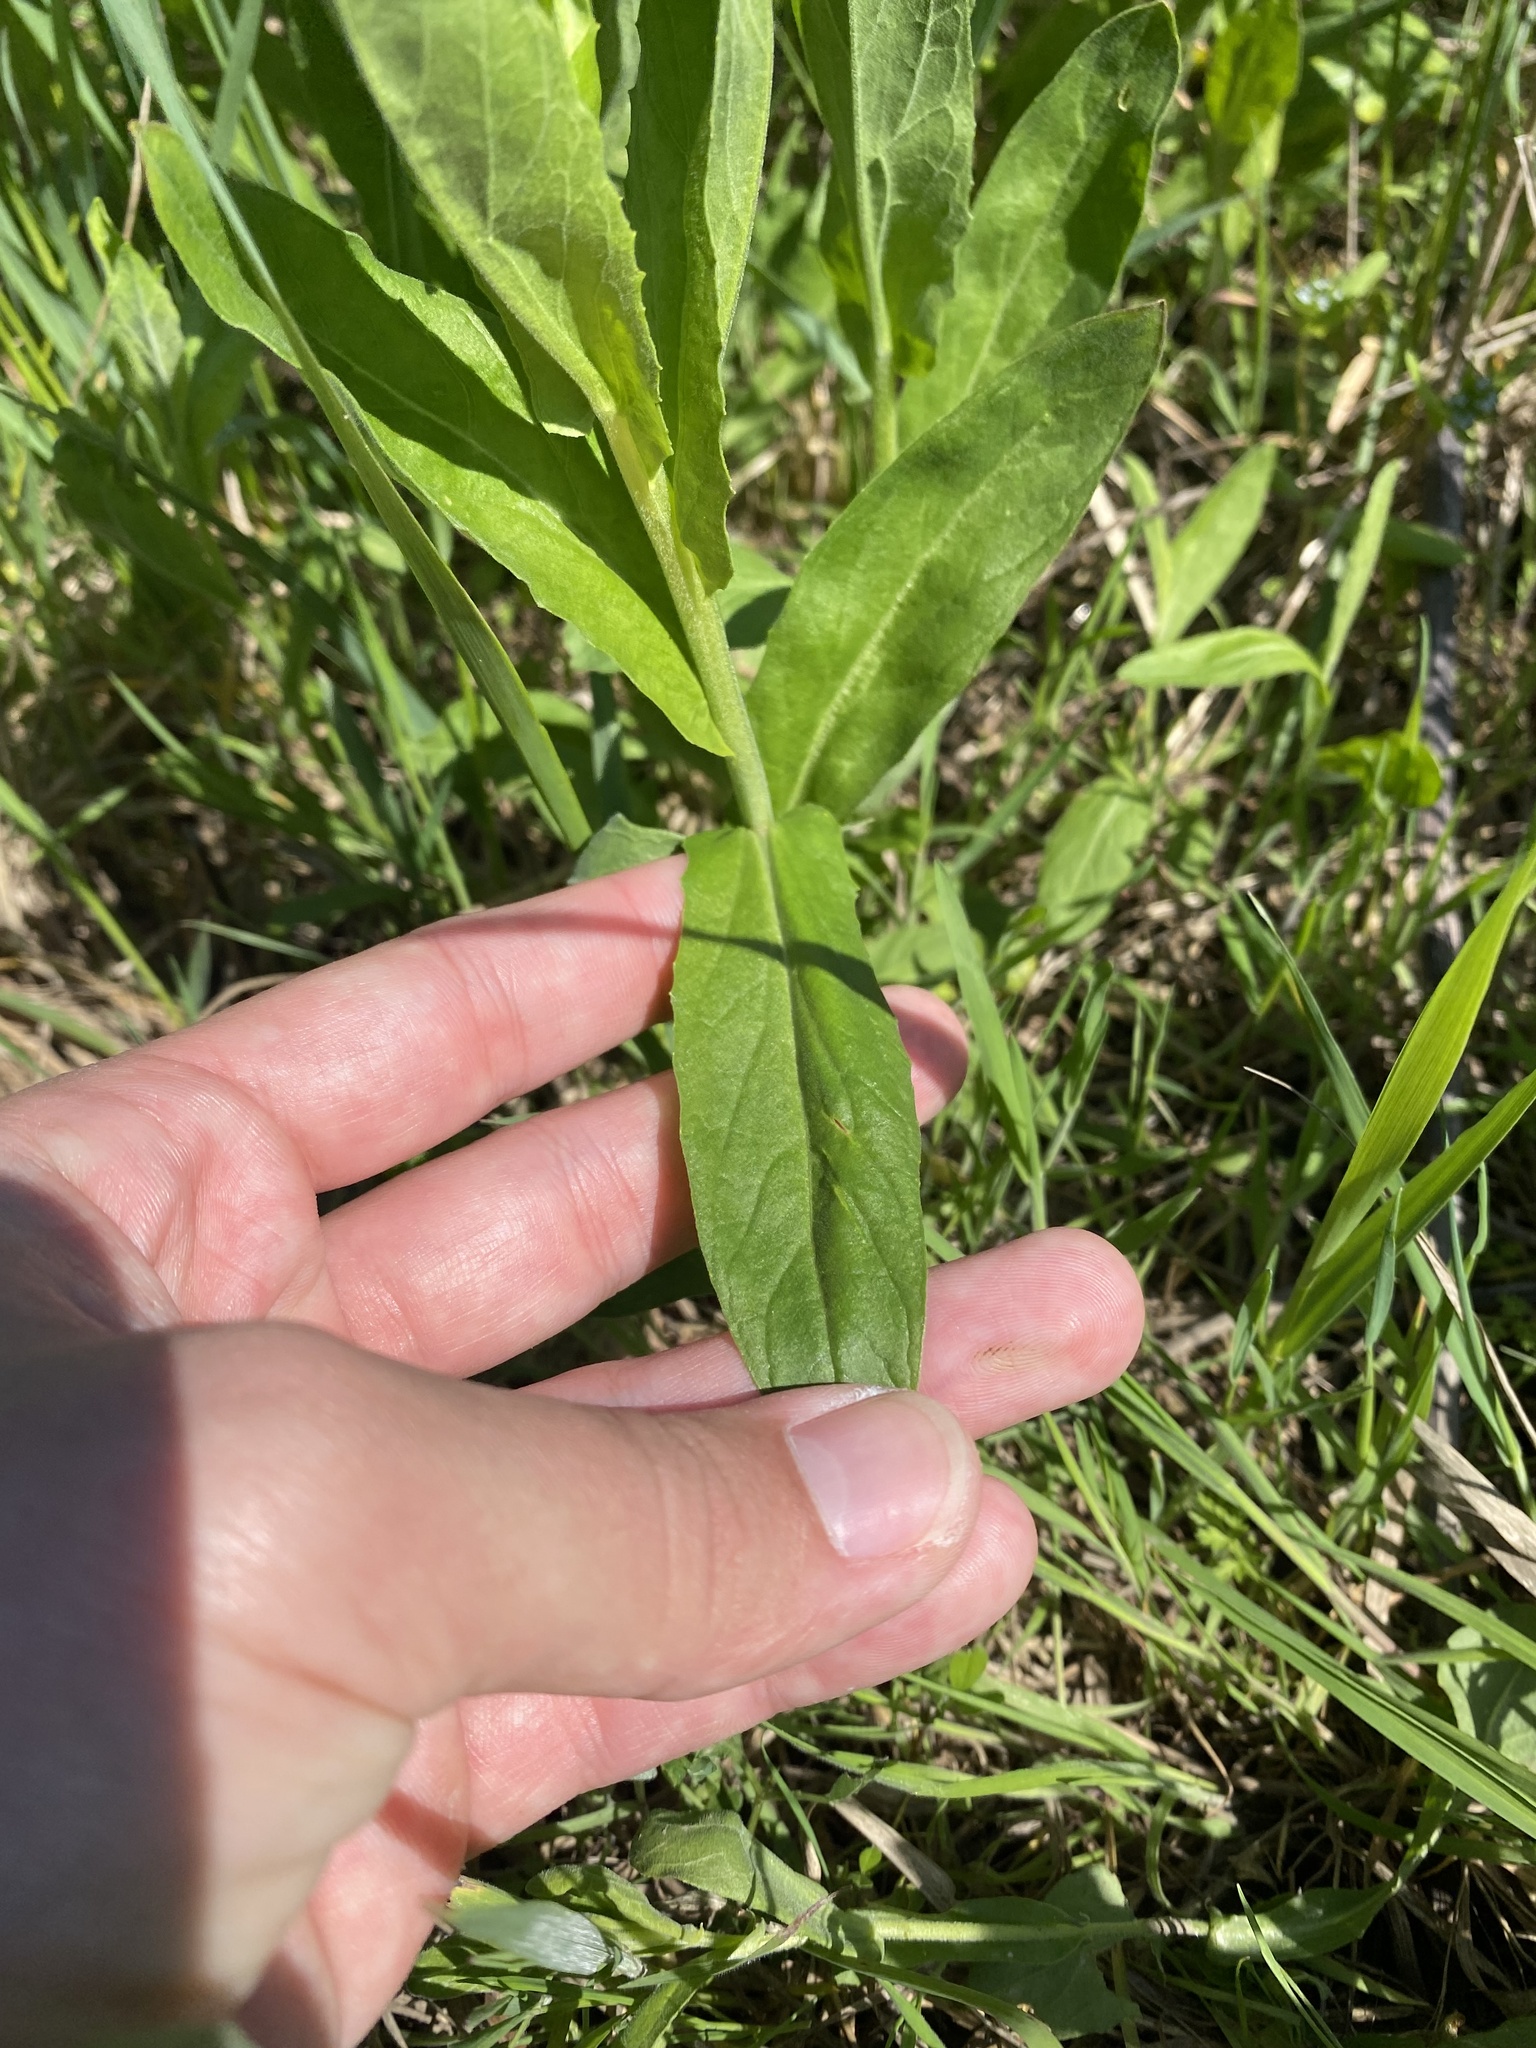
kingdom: Plantae
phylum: Tracheophyta
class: Magnoliopsida
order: Brassicales
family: Brassicaceae
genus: Lepidium
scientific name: Lepidium draba
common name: Hoary cress
